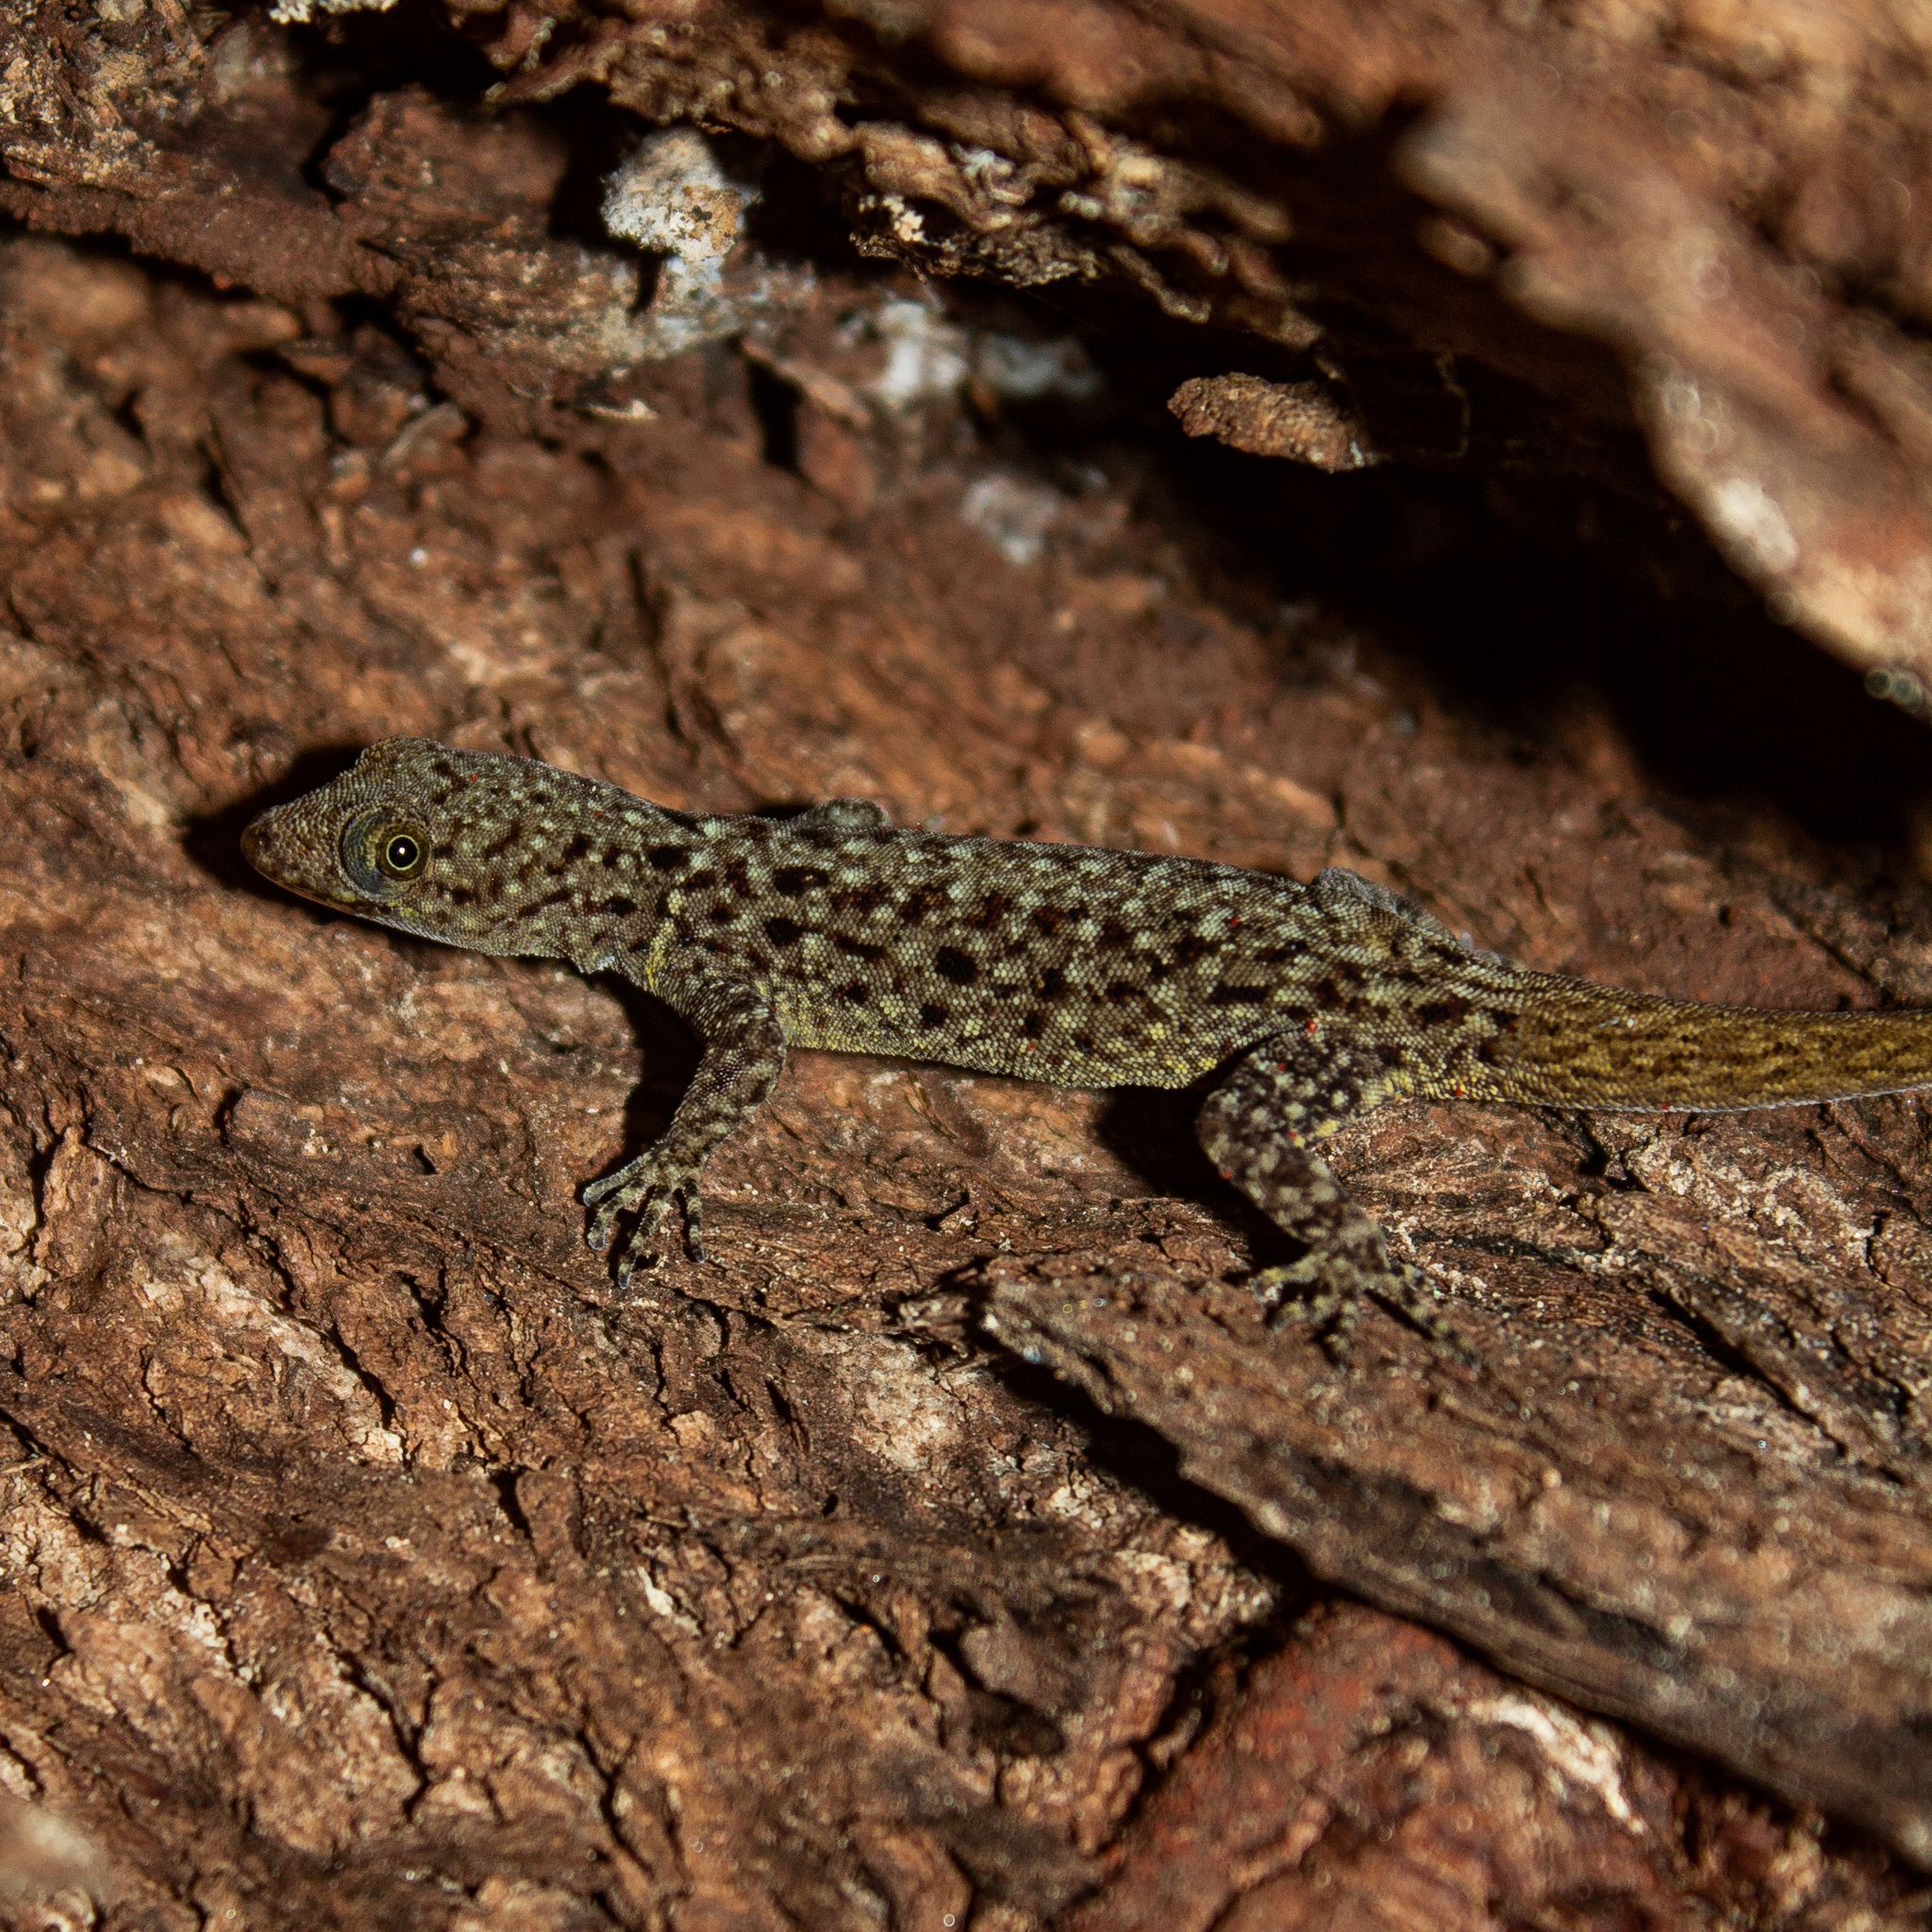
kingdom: Animalia
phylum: Chordata
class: Squamata
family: Sphaerodactylidae
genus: Gonatodes
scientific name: Gonatodes albogularis
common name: Yellow-headed gecko
